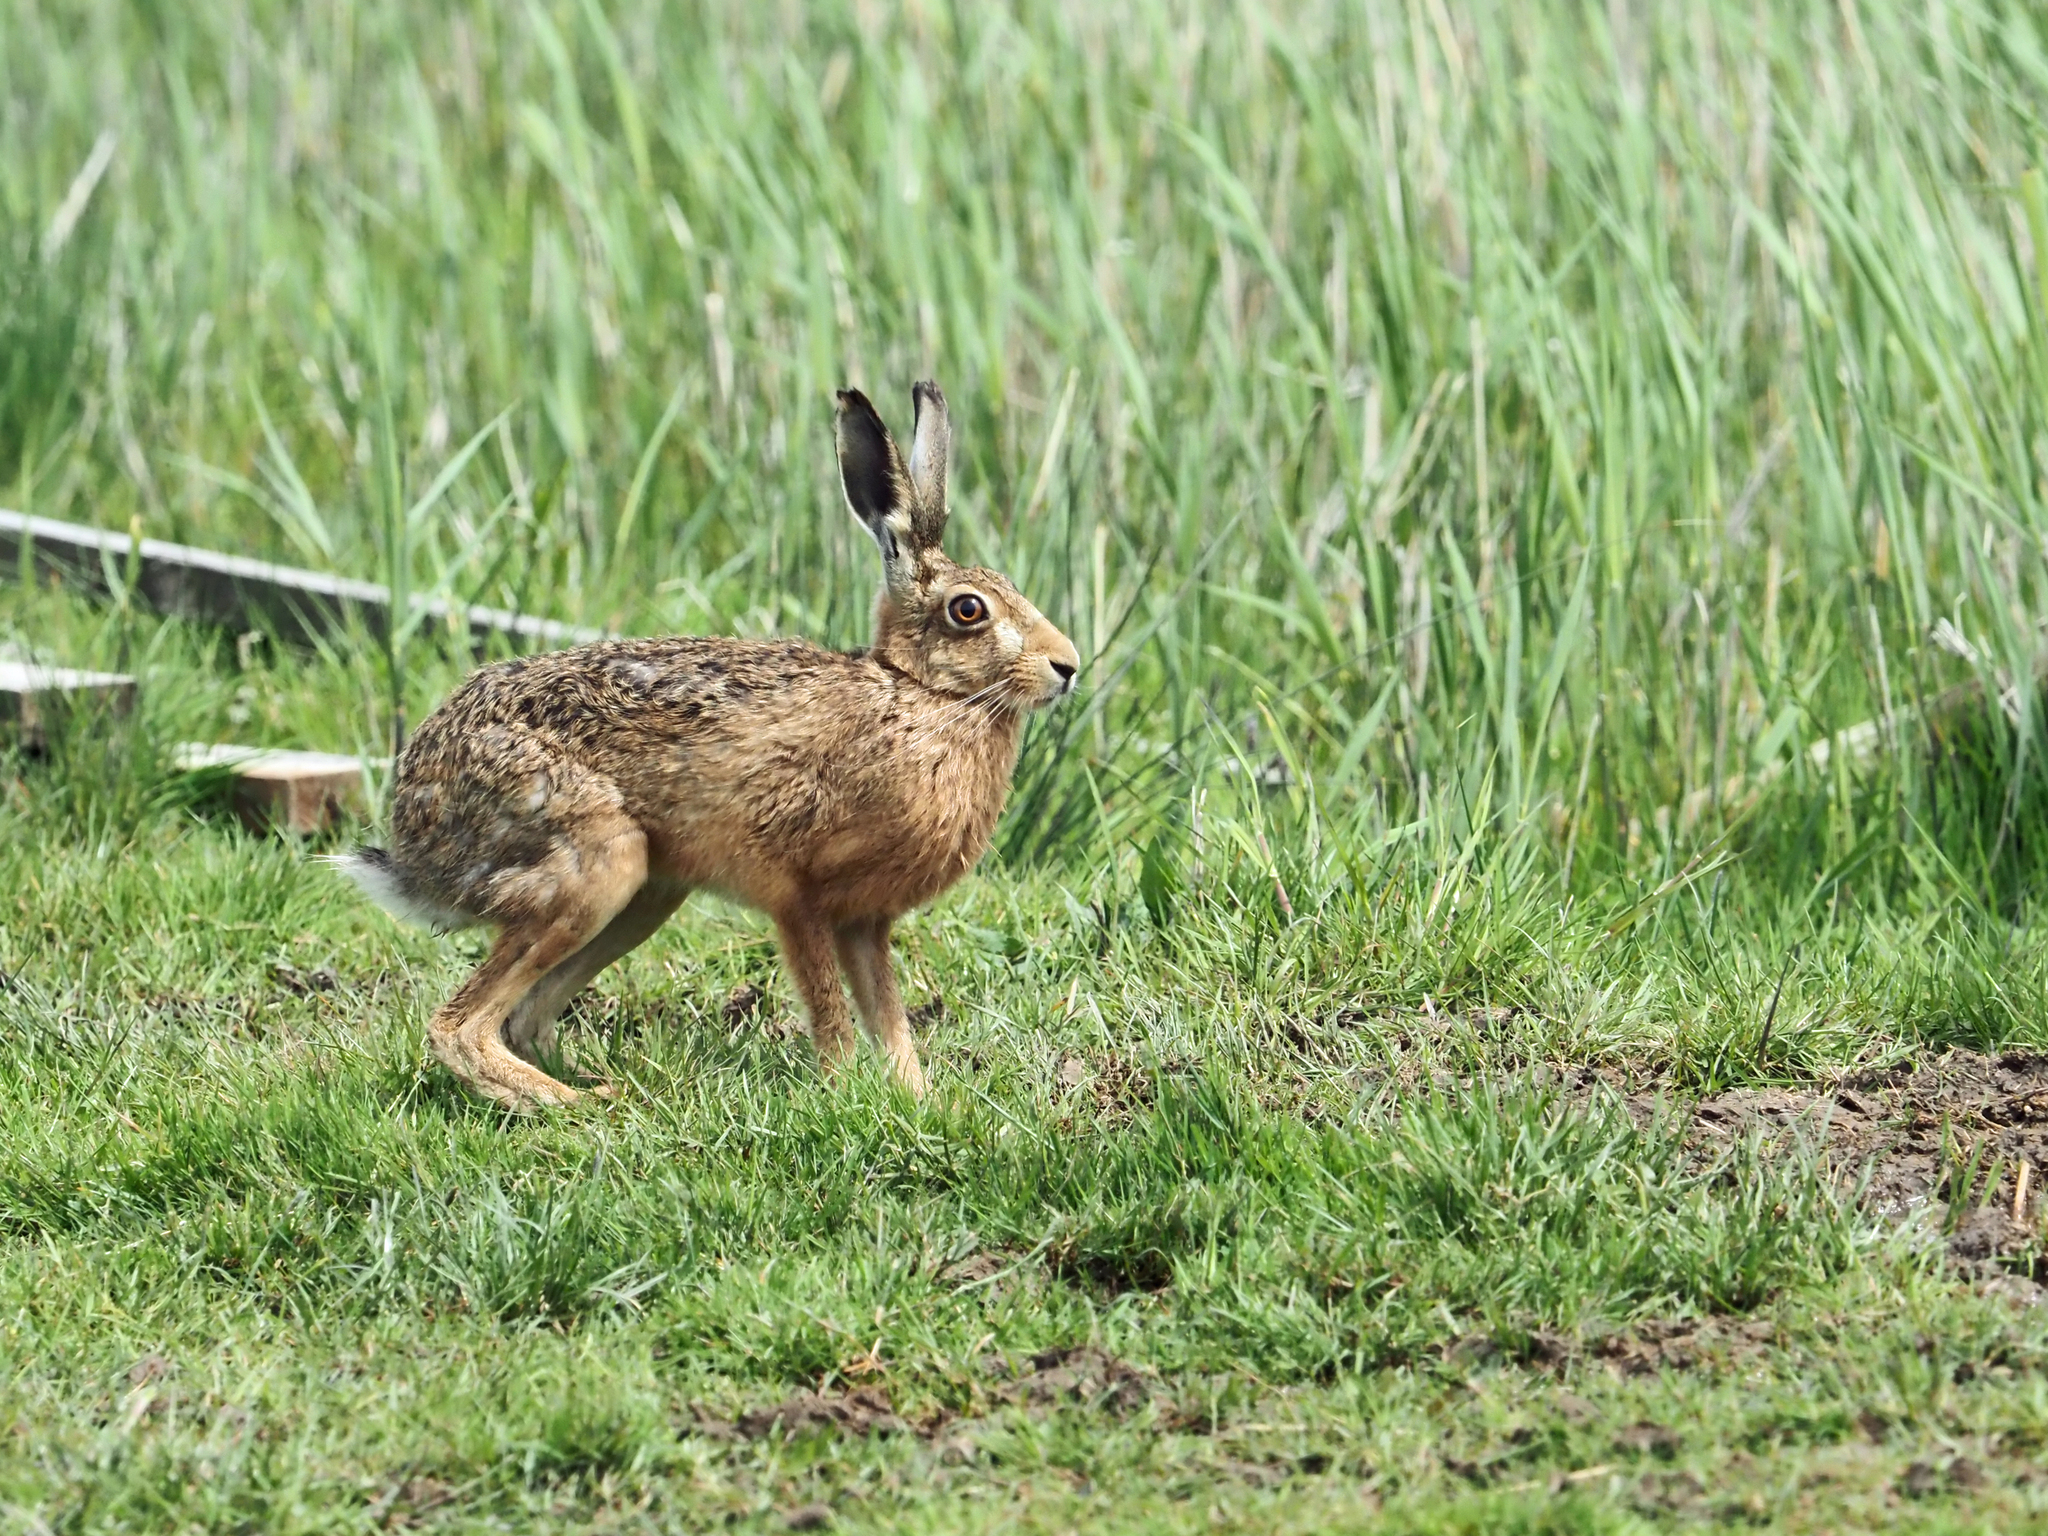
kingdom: Animalia
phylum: Chordata
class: Mammalia
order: Lagomorpha
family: Leporidae
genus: Lepus
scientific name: Lepus europaeus
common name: European hare
